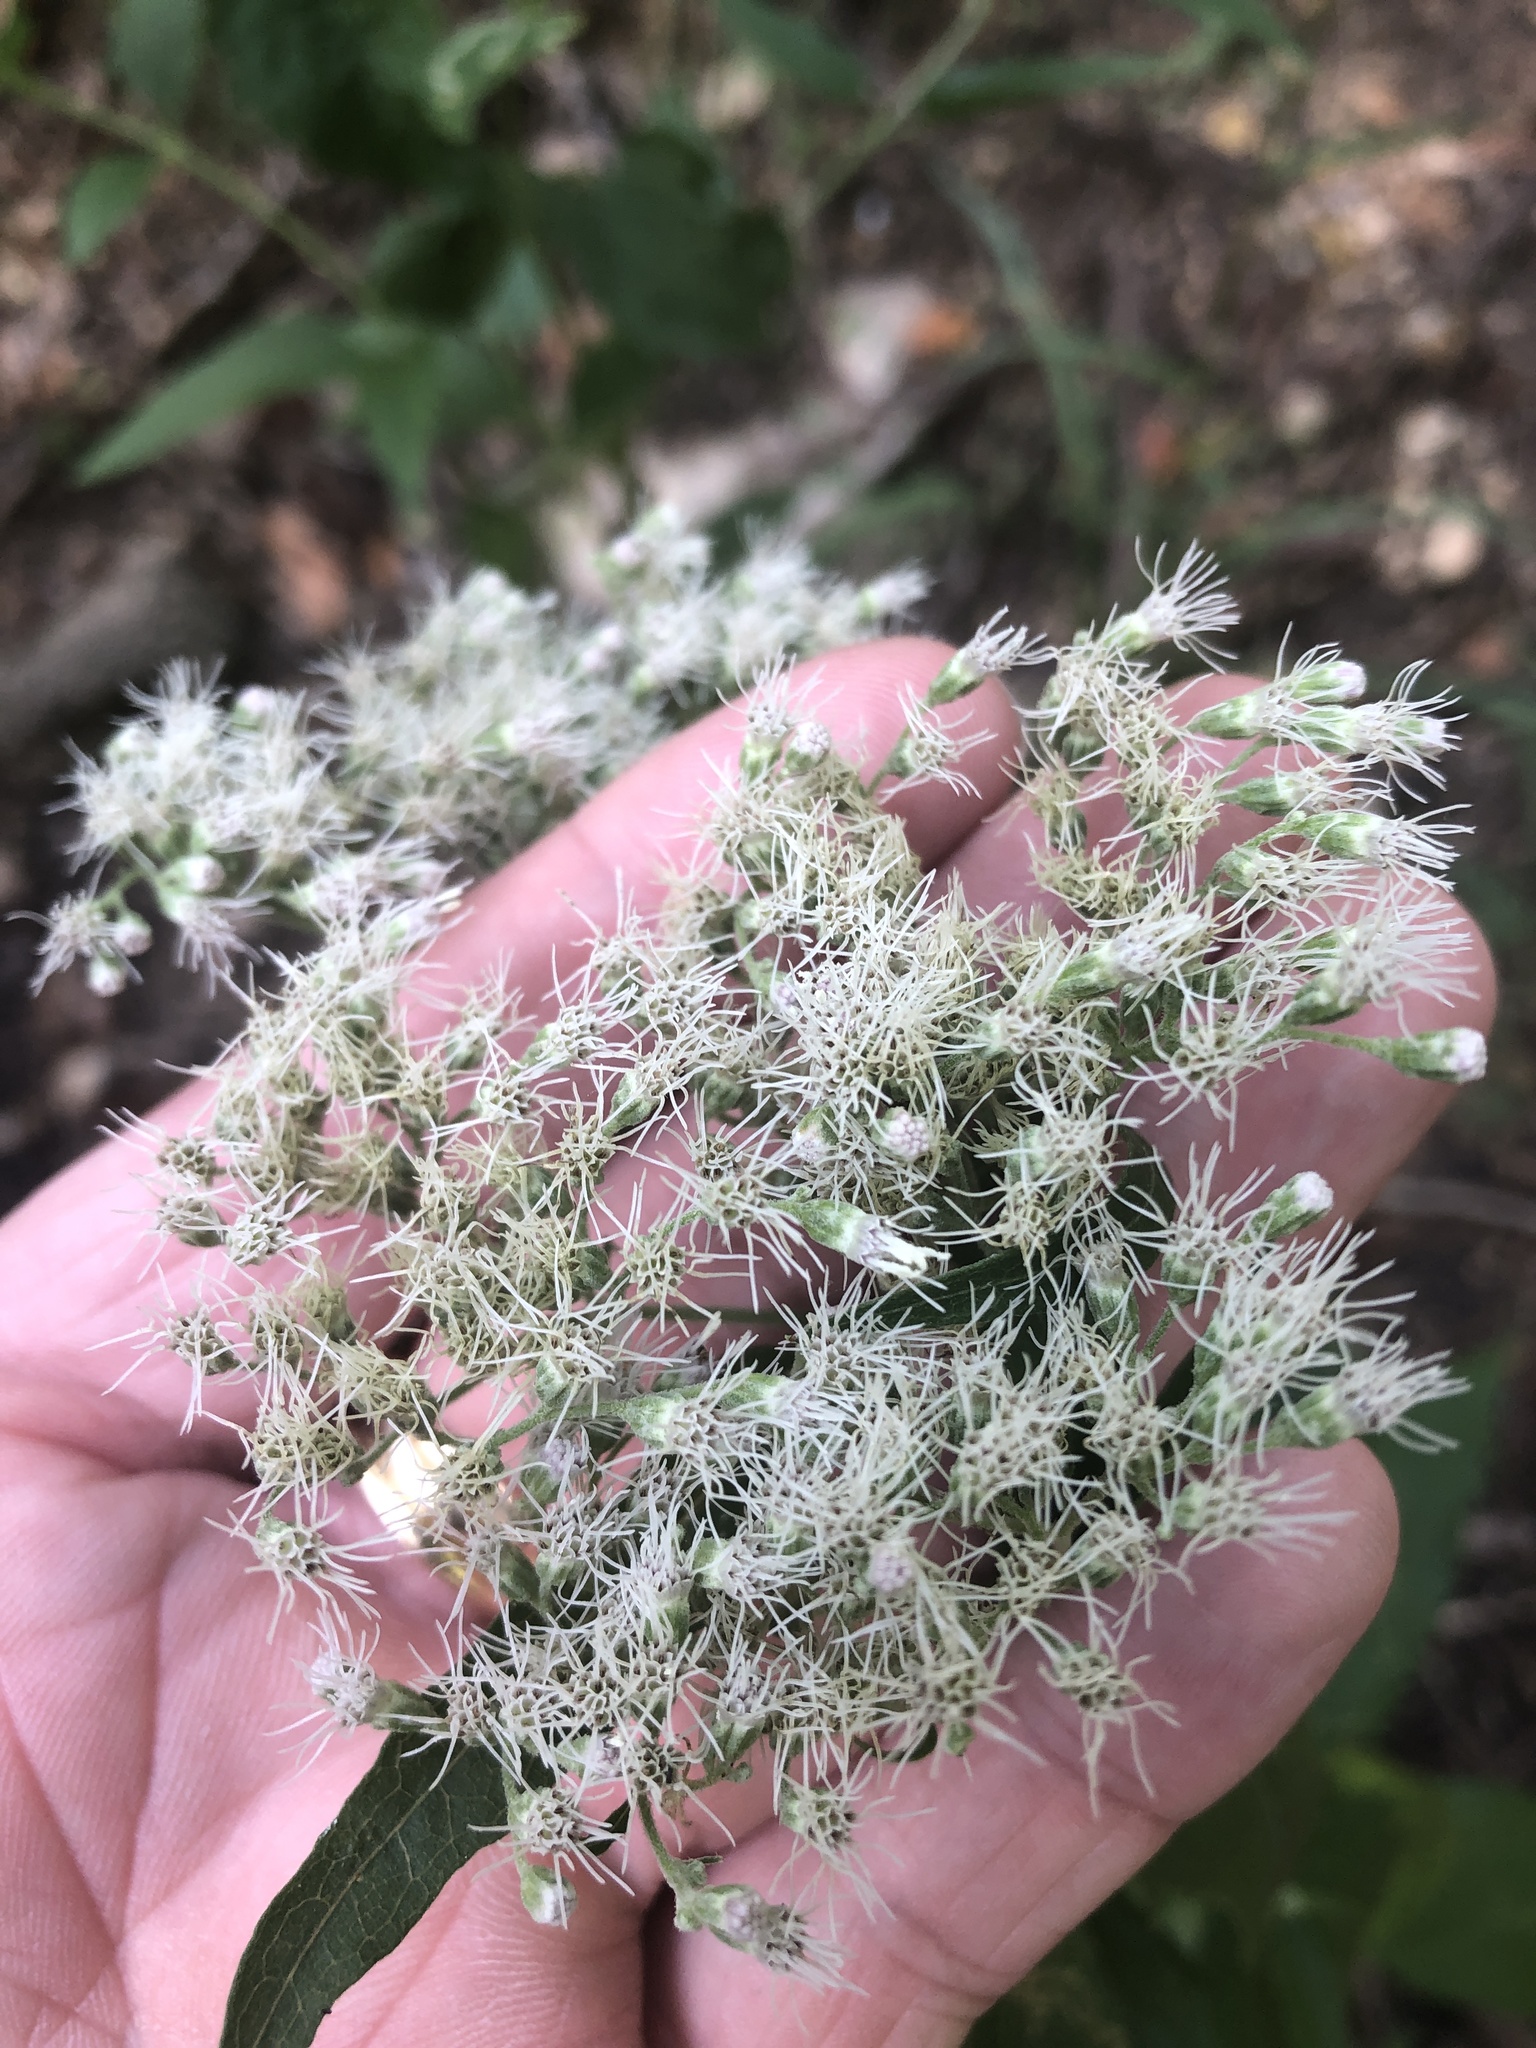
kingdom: Plantae
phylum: Tracheophyta
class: Magnoliopsida
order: Asterales
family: Asteraceae
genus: Eupatorium
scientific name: Eupatorium serotinum
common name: Late boneset
